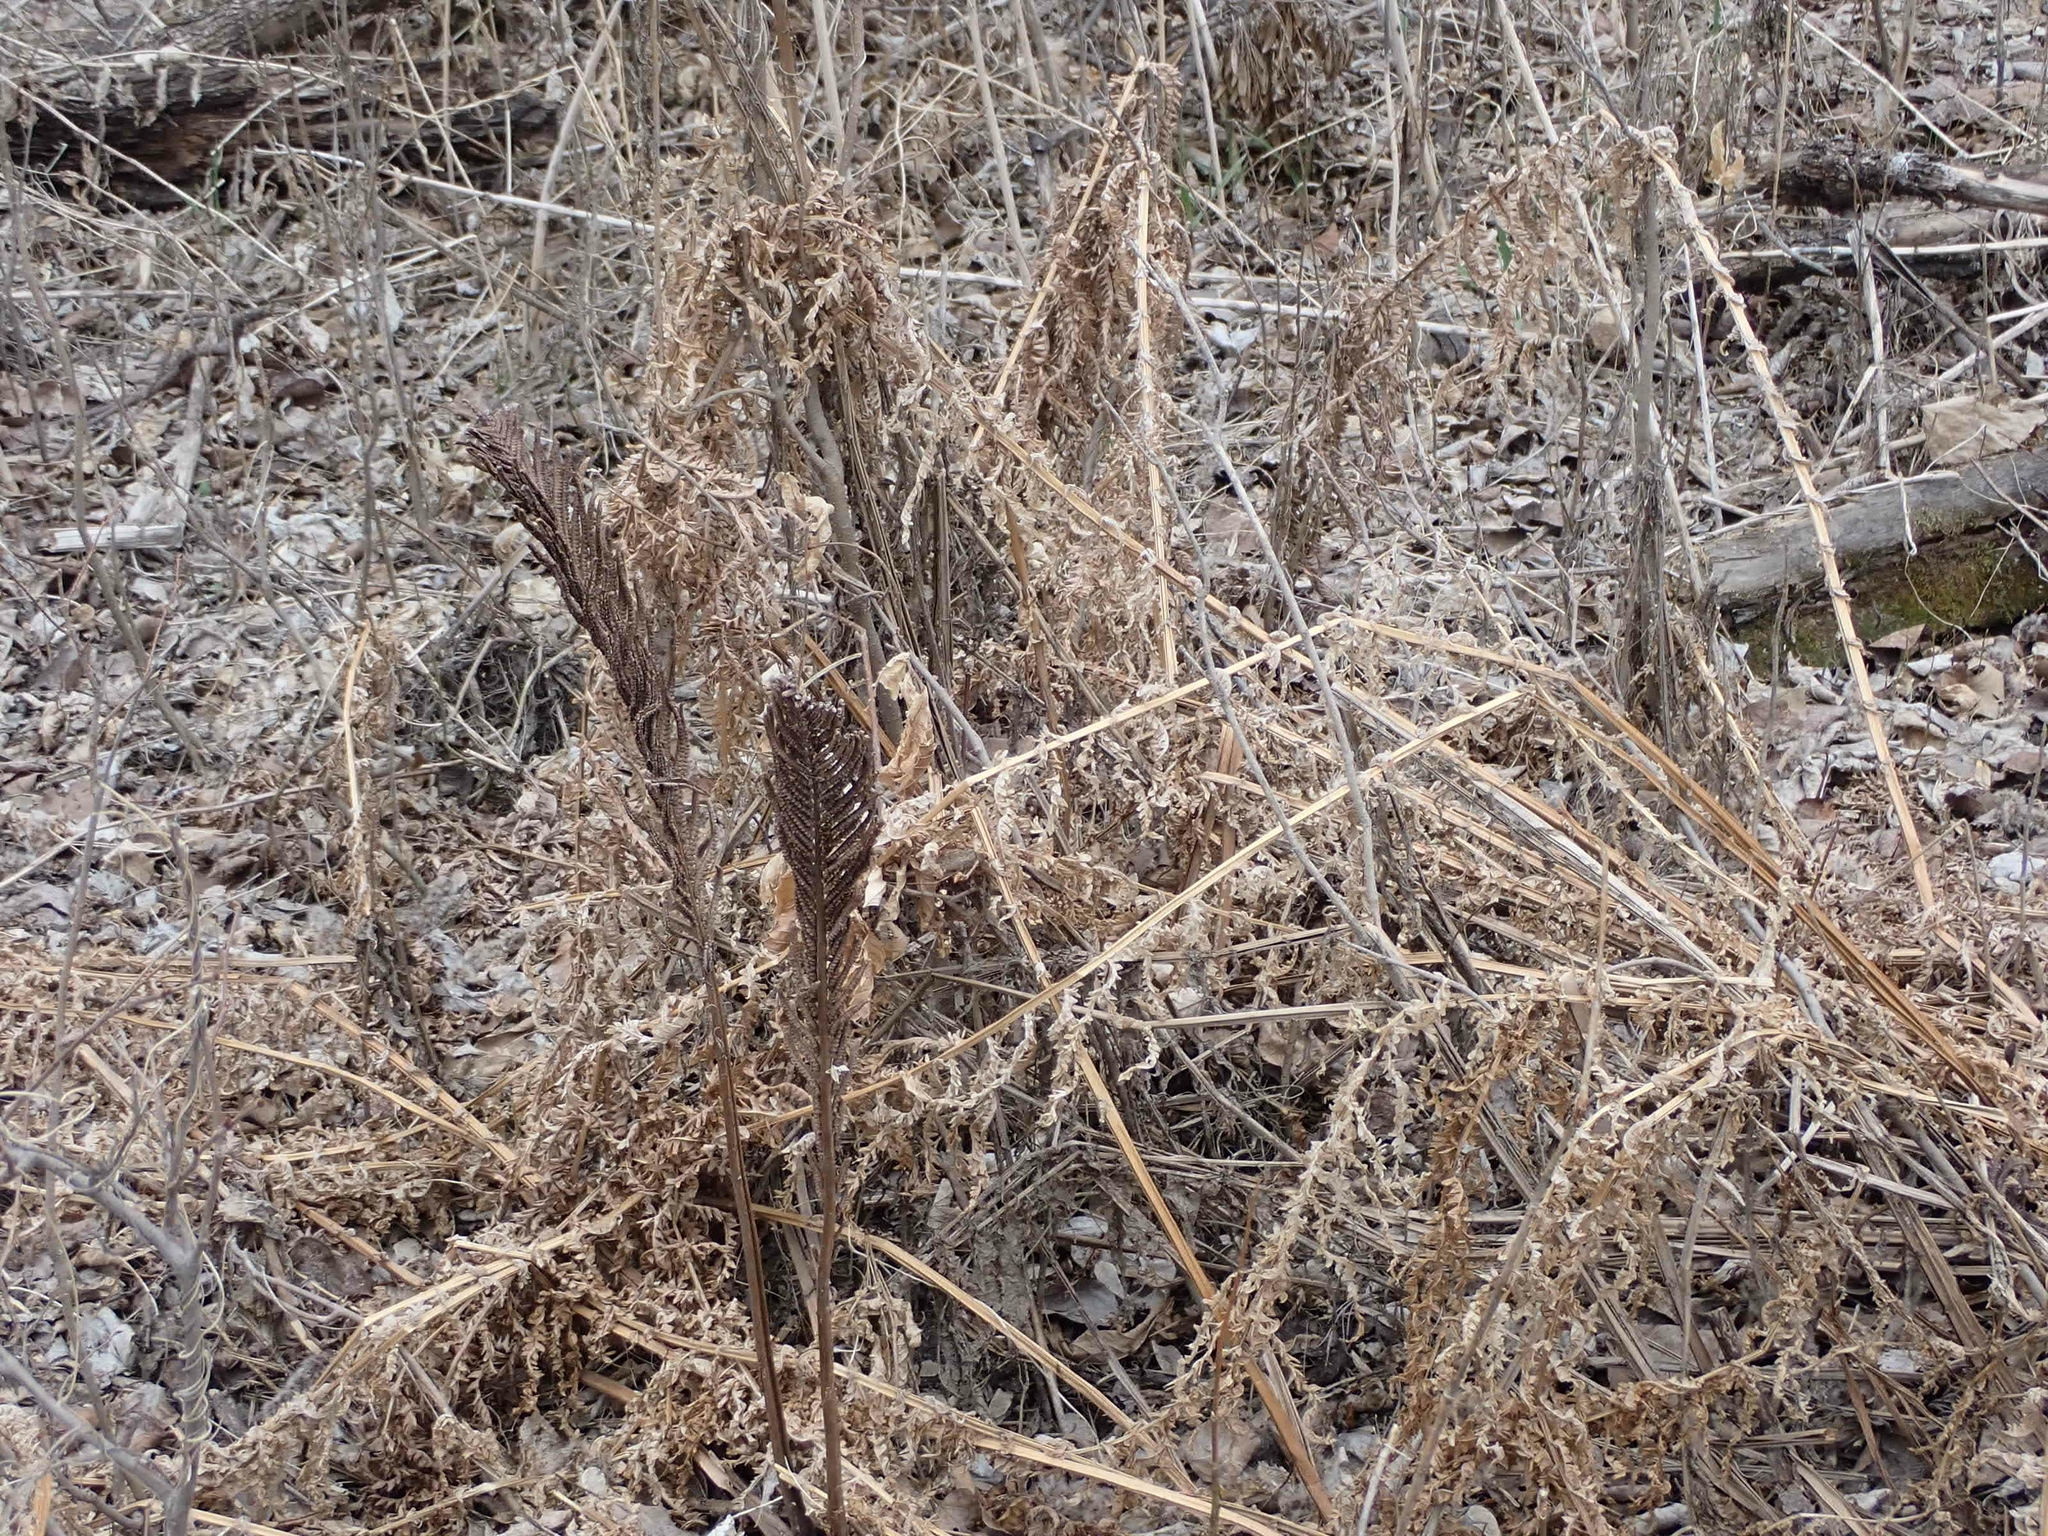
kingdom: Plantae
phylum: Tracheophyta
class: Polypodiopsida
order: Polypodiales
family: Onocleaceae
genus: Matteuccia
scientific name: Matteuccia struthiopteris
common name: Ostrich fern
